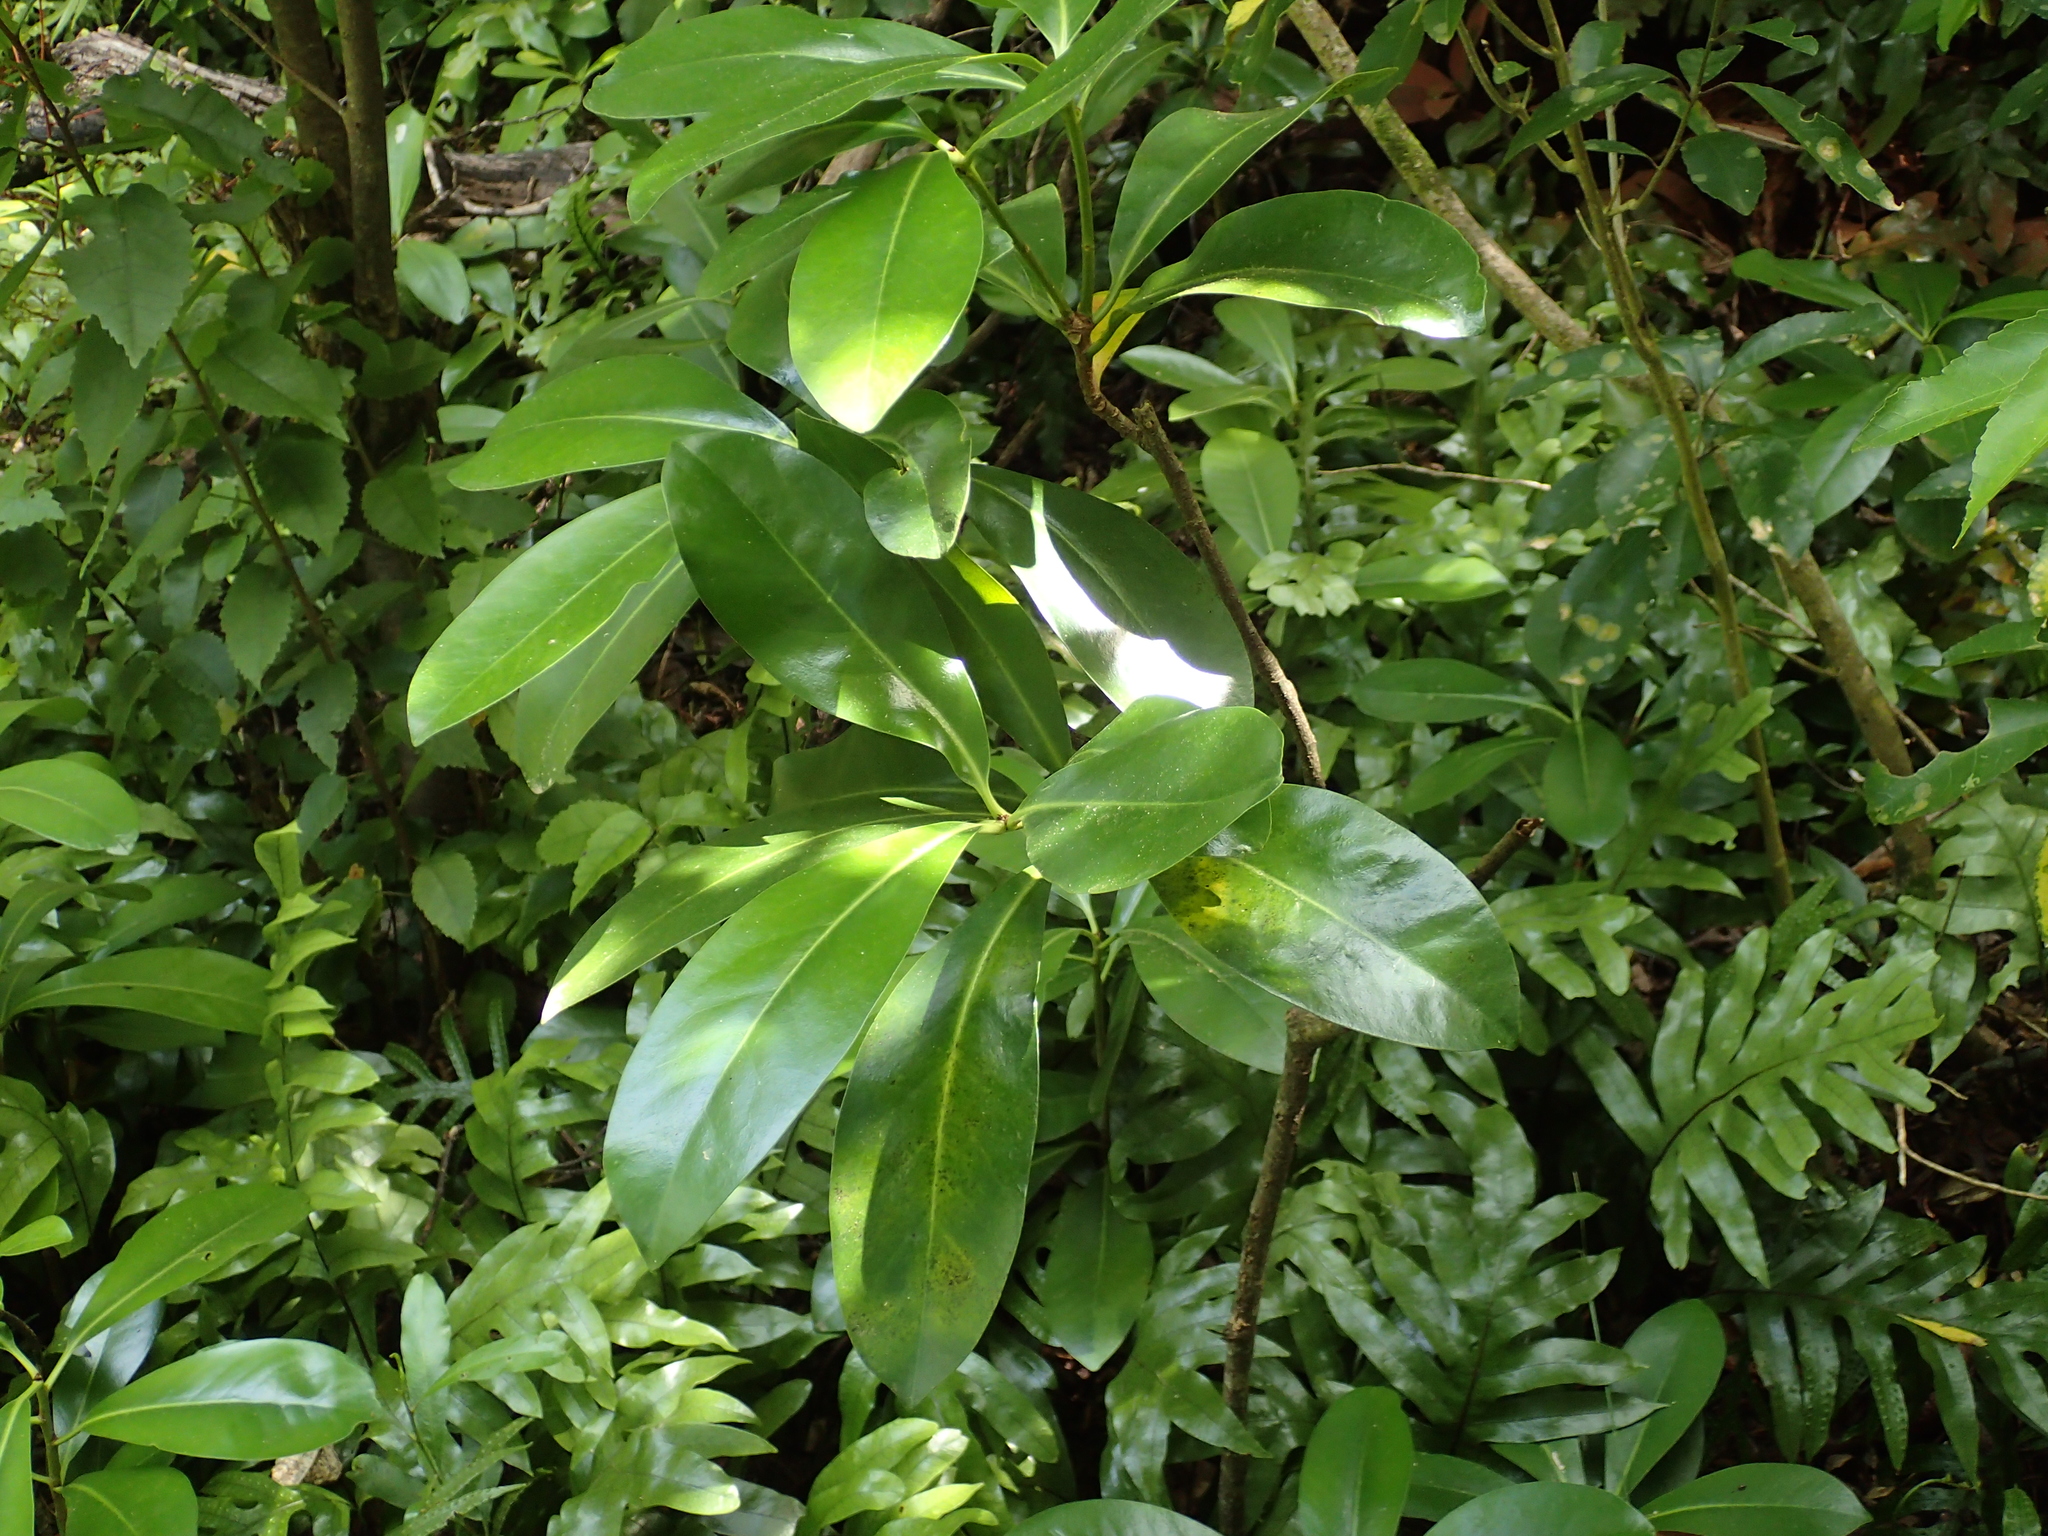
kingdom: Plantae
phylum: Tracheophyta
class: Magnoliopsida
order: Cucurbitales
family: Corynocarpaceae
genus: Corynocarpus
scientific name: Corynocarpus laevigatus
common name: New zealand laurel
